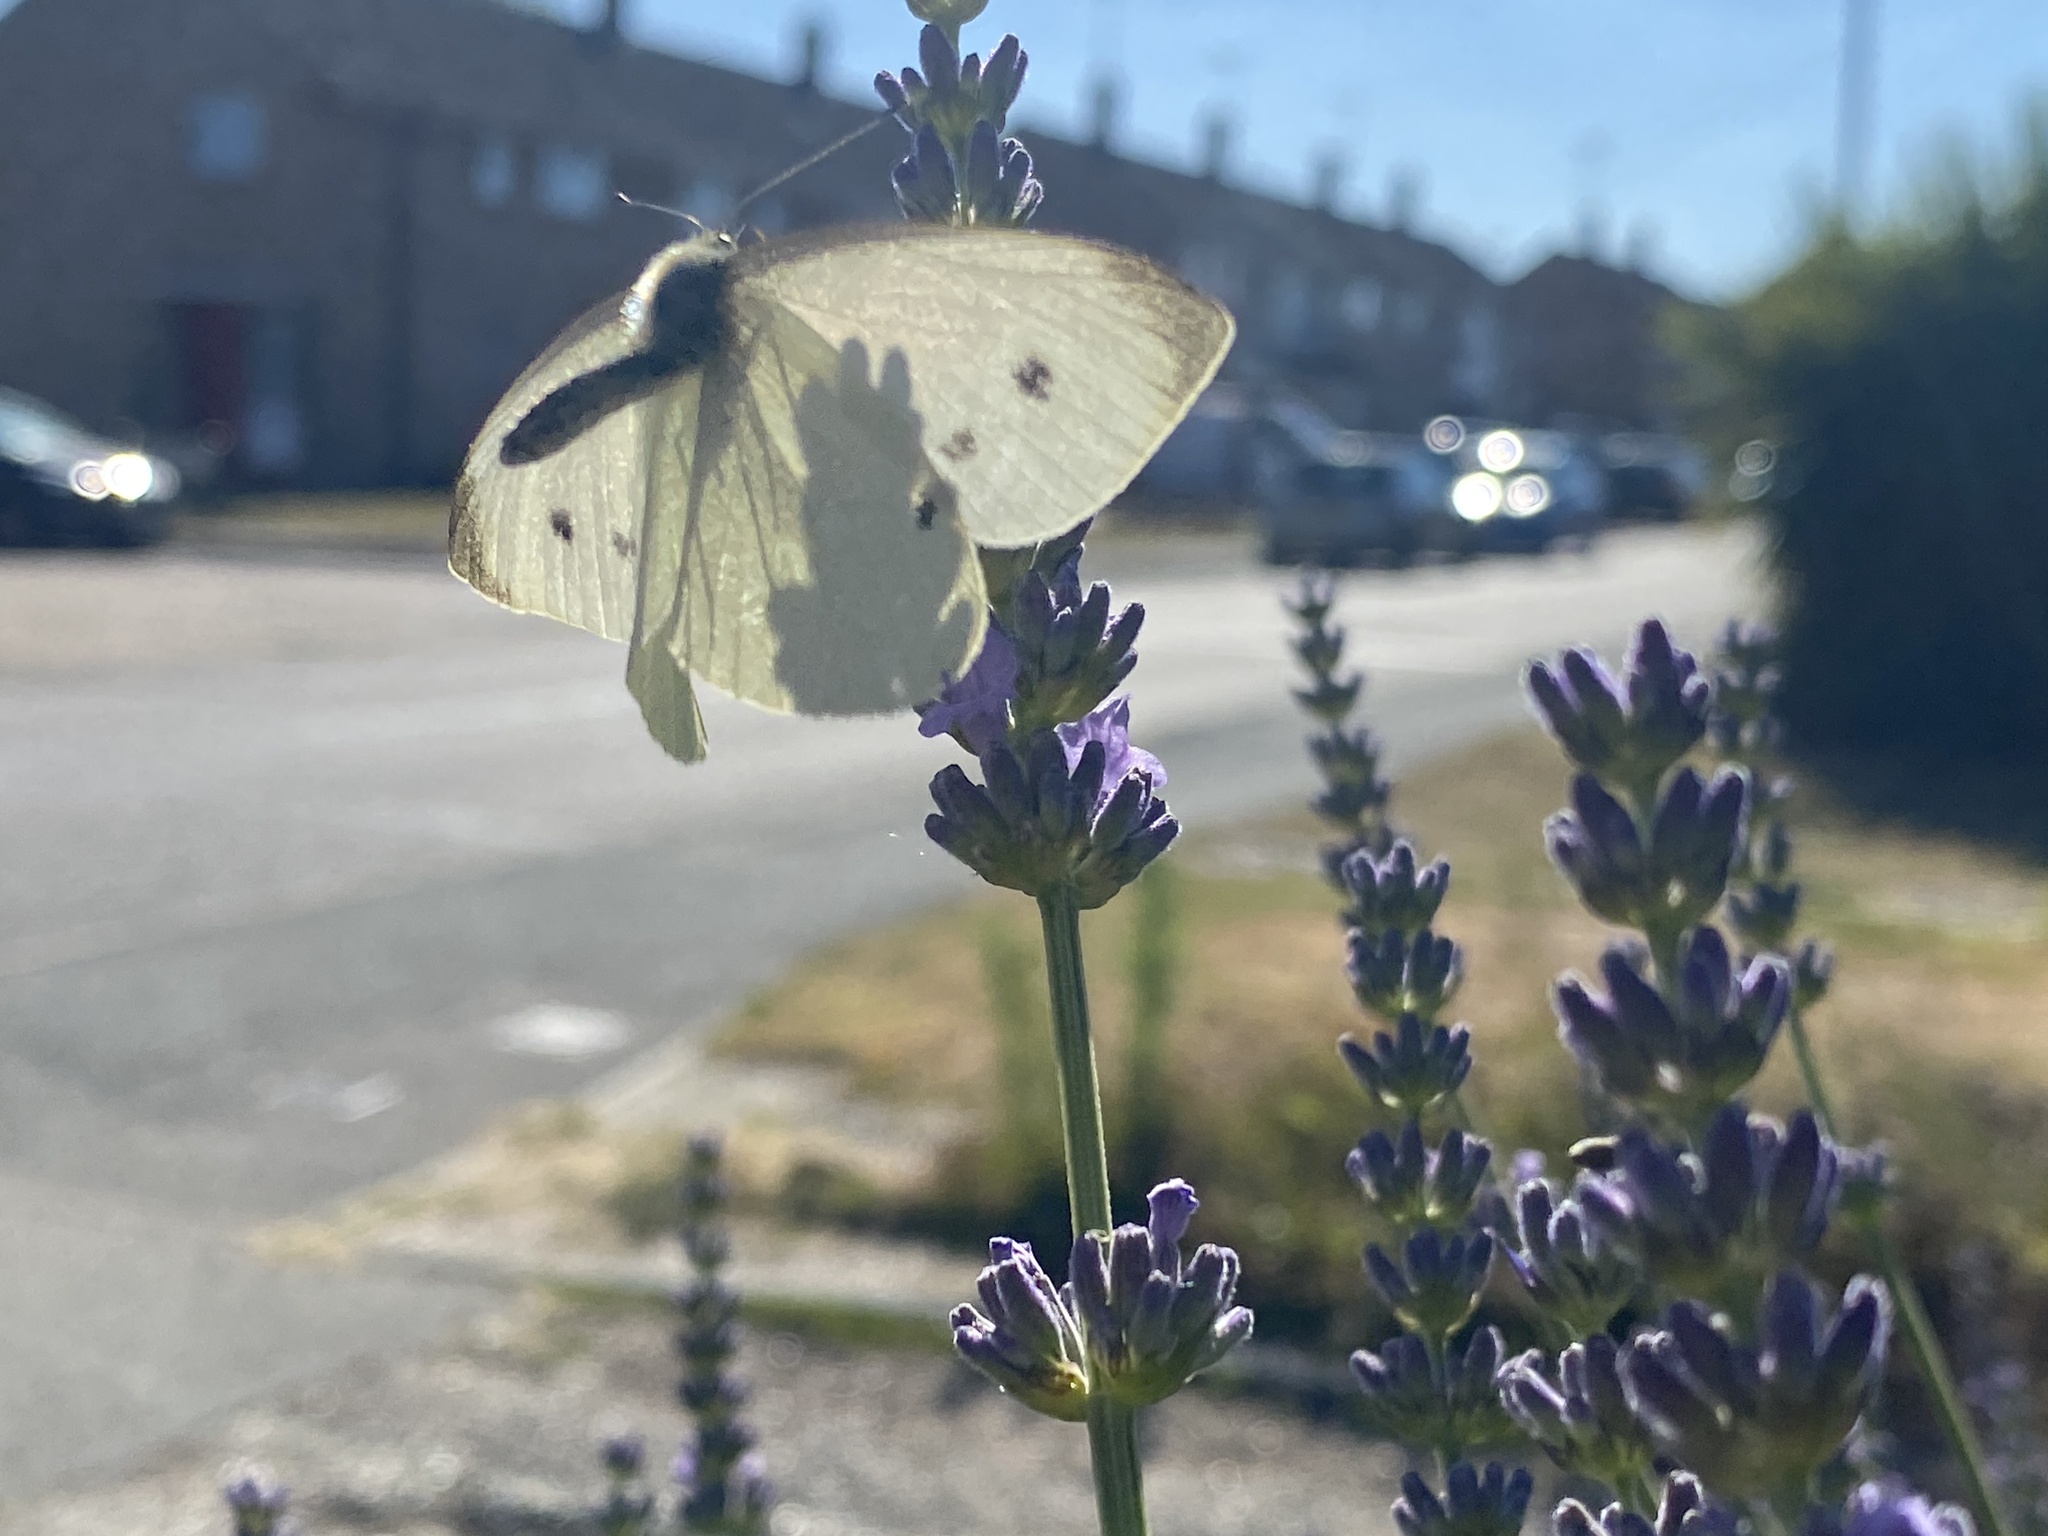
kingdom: Animalia
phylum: Arthropoda
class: Insecta
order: Lepidoptera
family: Pieridae
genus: Pieris
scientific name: Pieris rapae
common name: Small white
